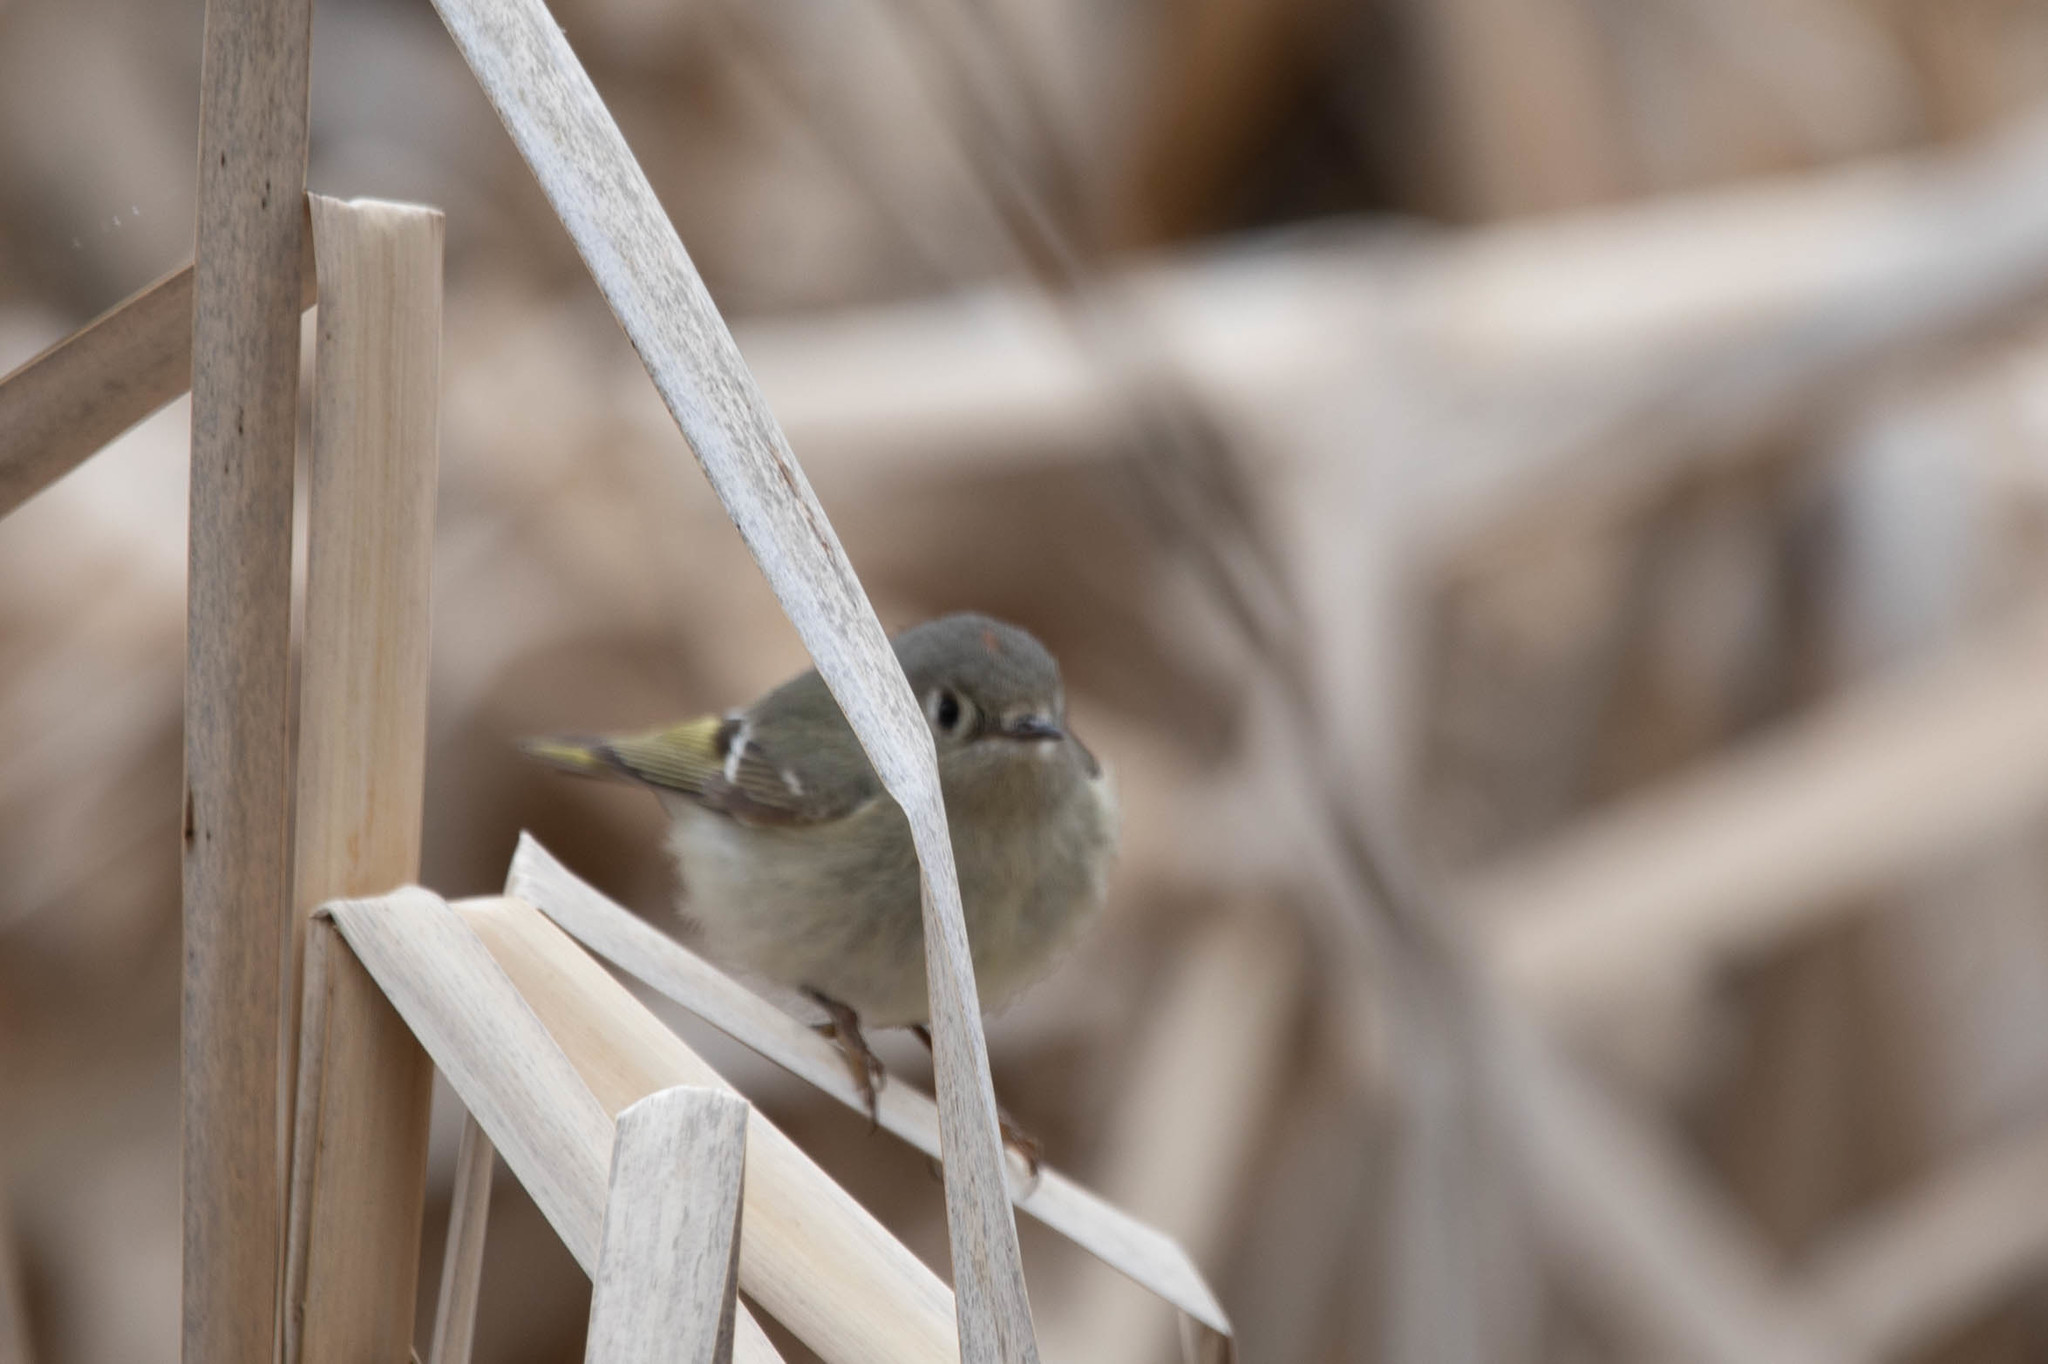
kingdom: Animalia
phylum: Chordata
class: Aves
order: Passeriformes
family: Regulidae
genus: Regulus
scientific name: Regulus calendula
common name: Ruby-crowned kinglet
